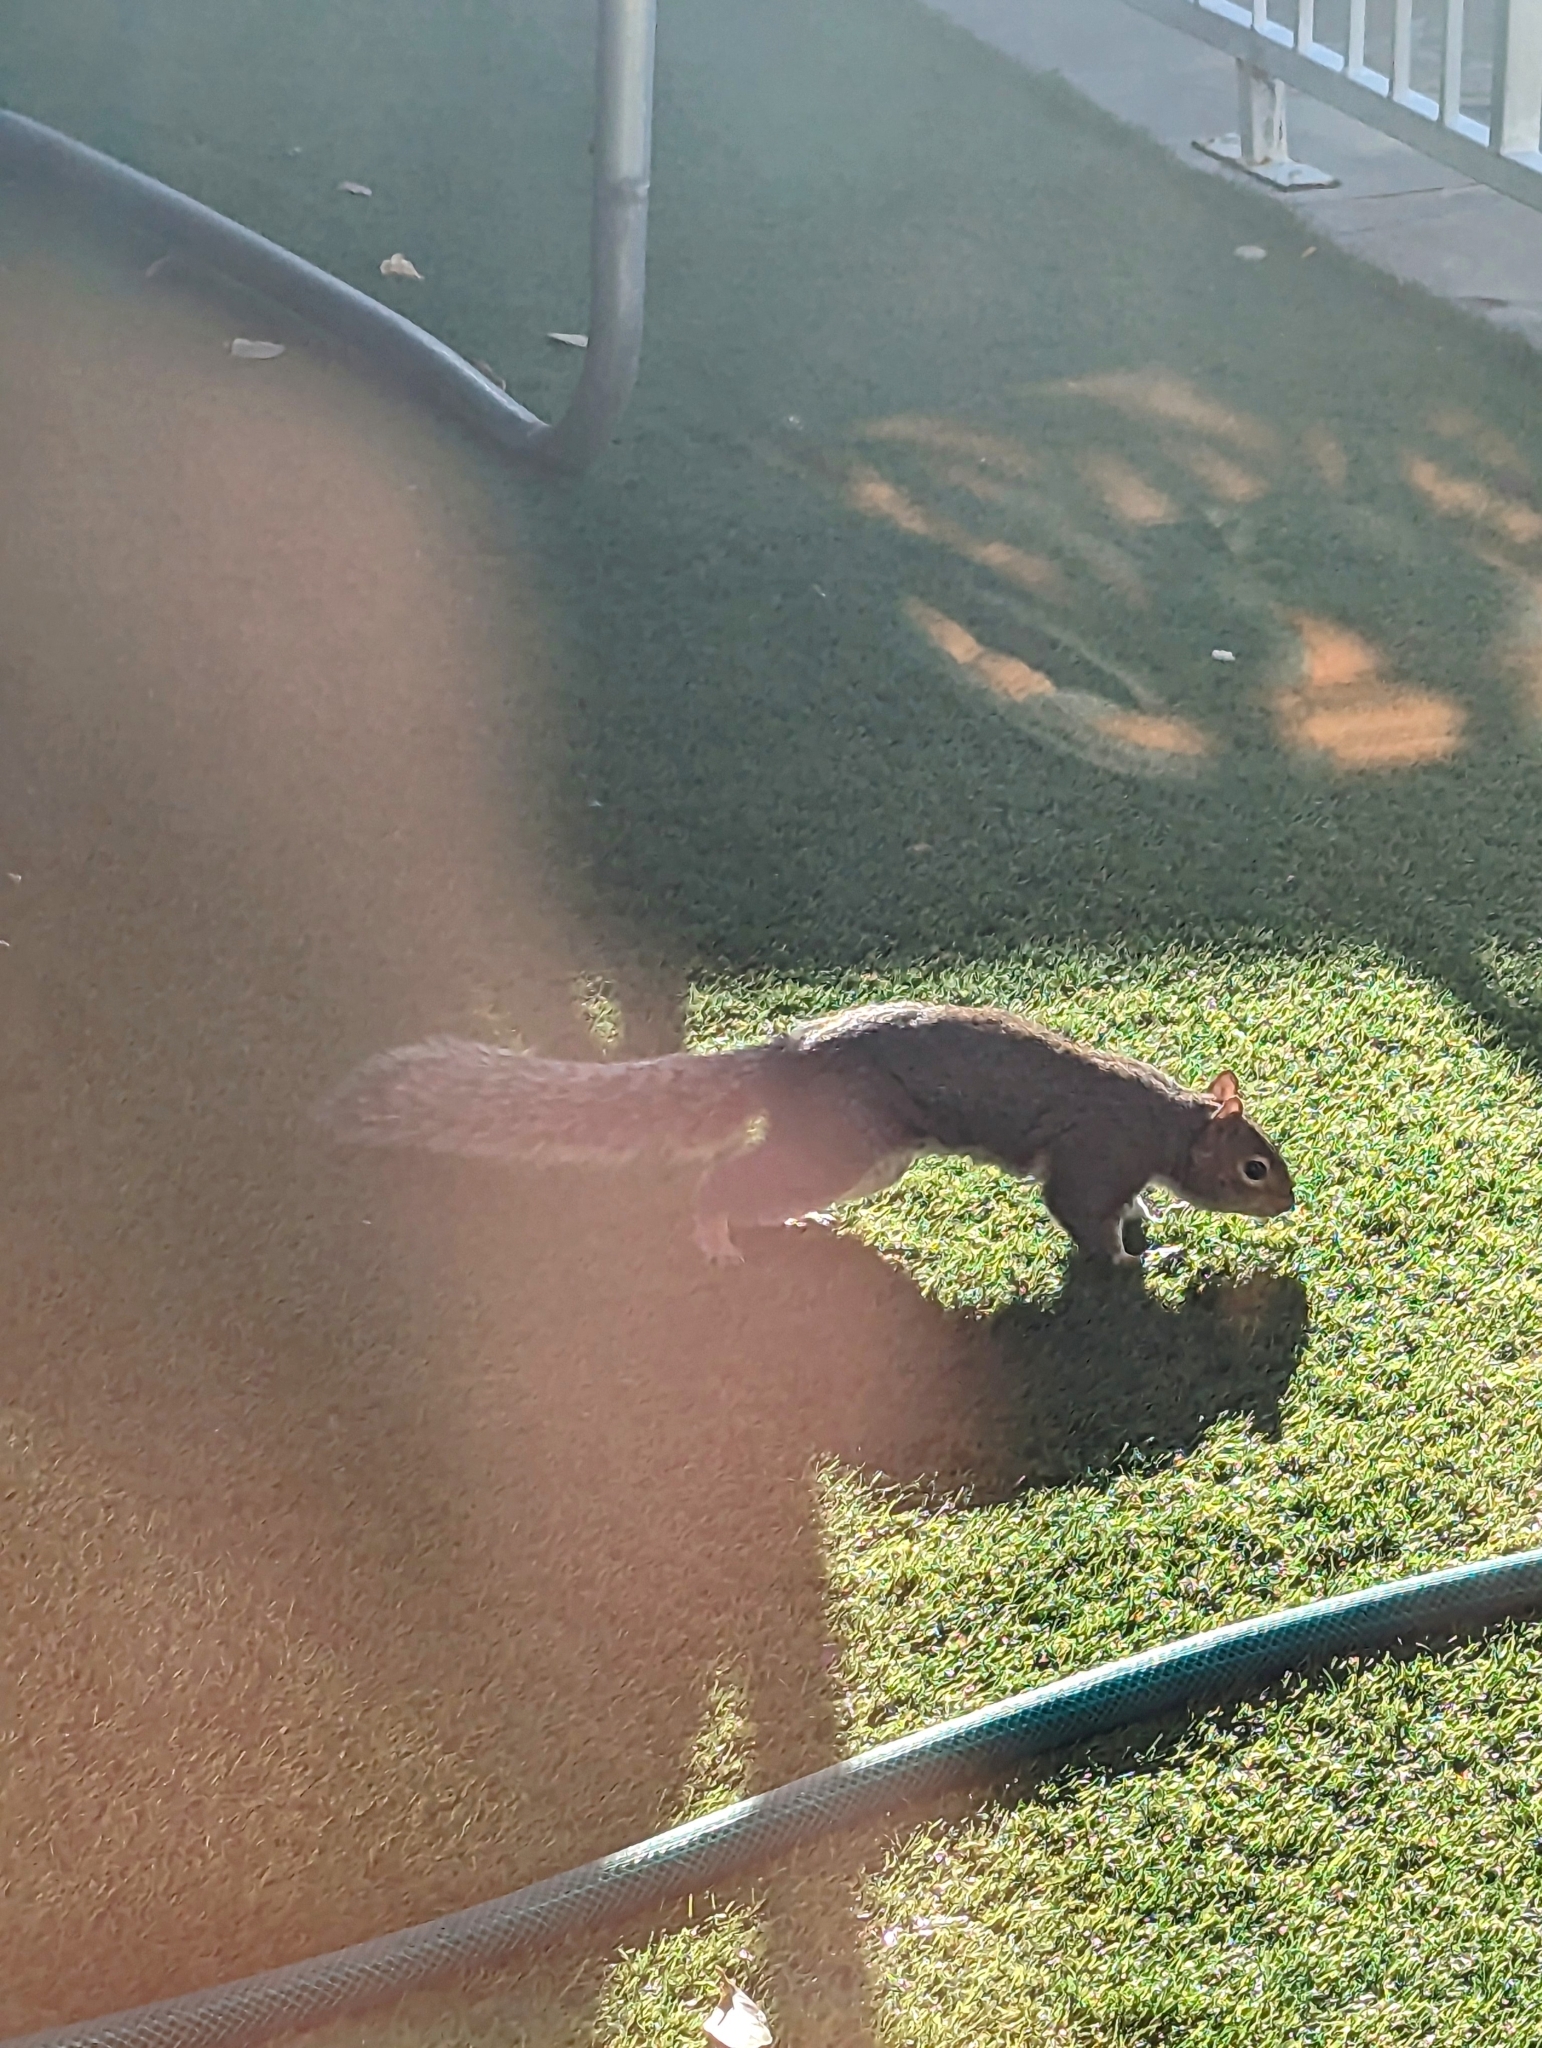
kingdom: Animalia
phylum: Chordata
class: Mammalia
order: Rodentia
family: Sciuridae
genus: Sciurus
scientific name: Sciurus carolinensis
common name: Eastern gray squirrel
